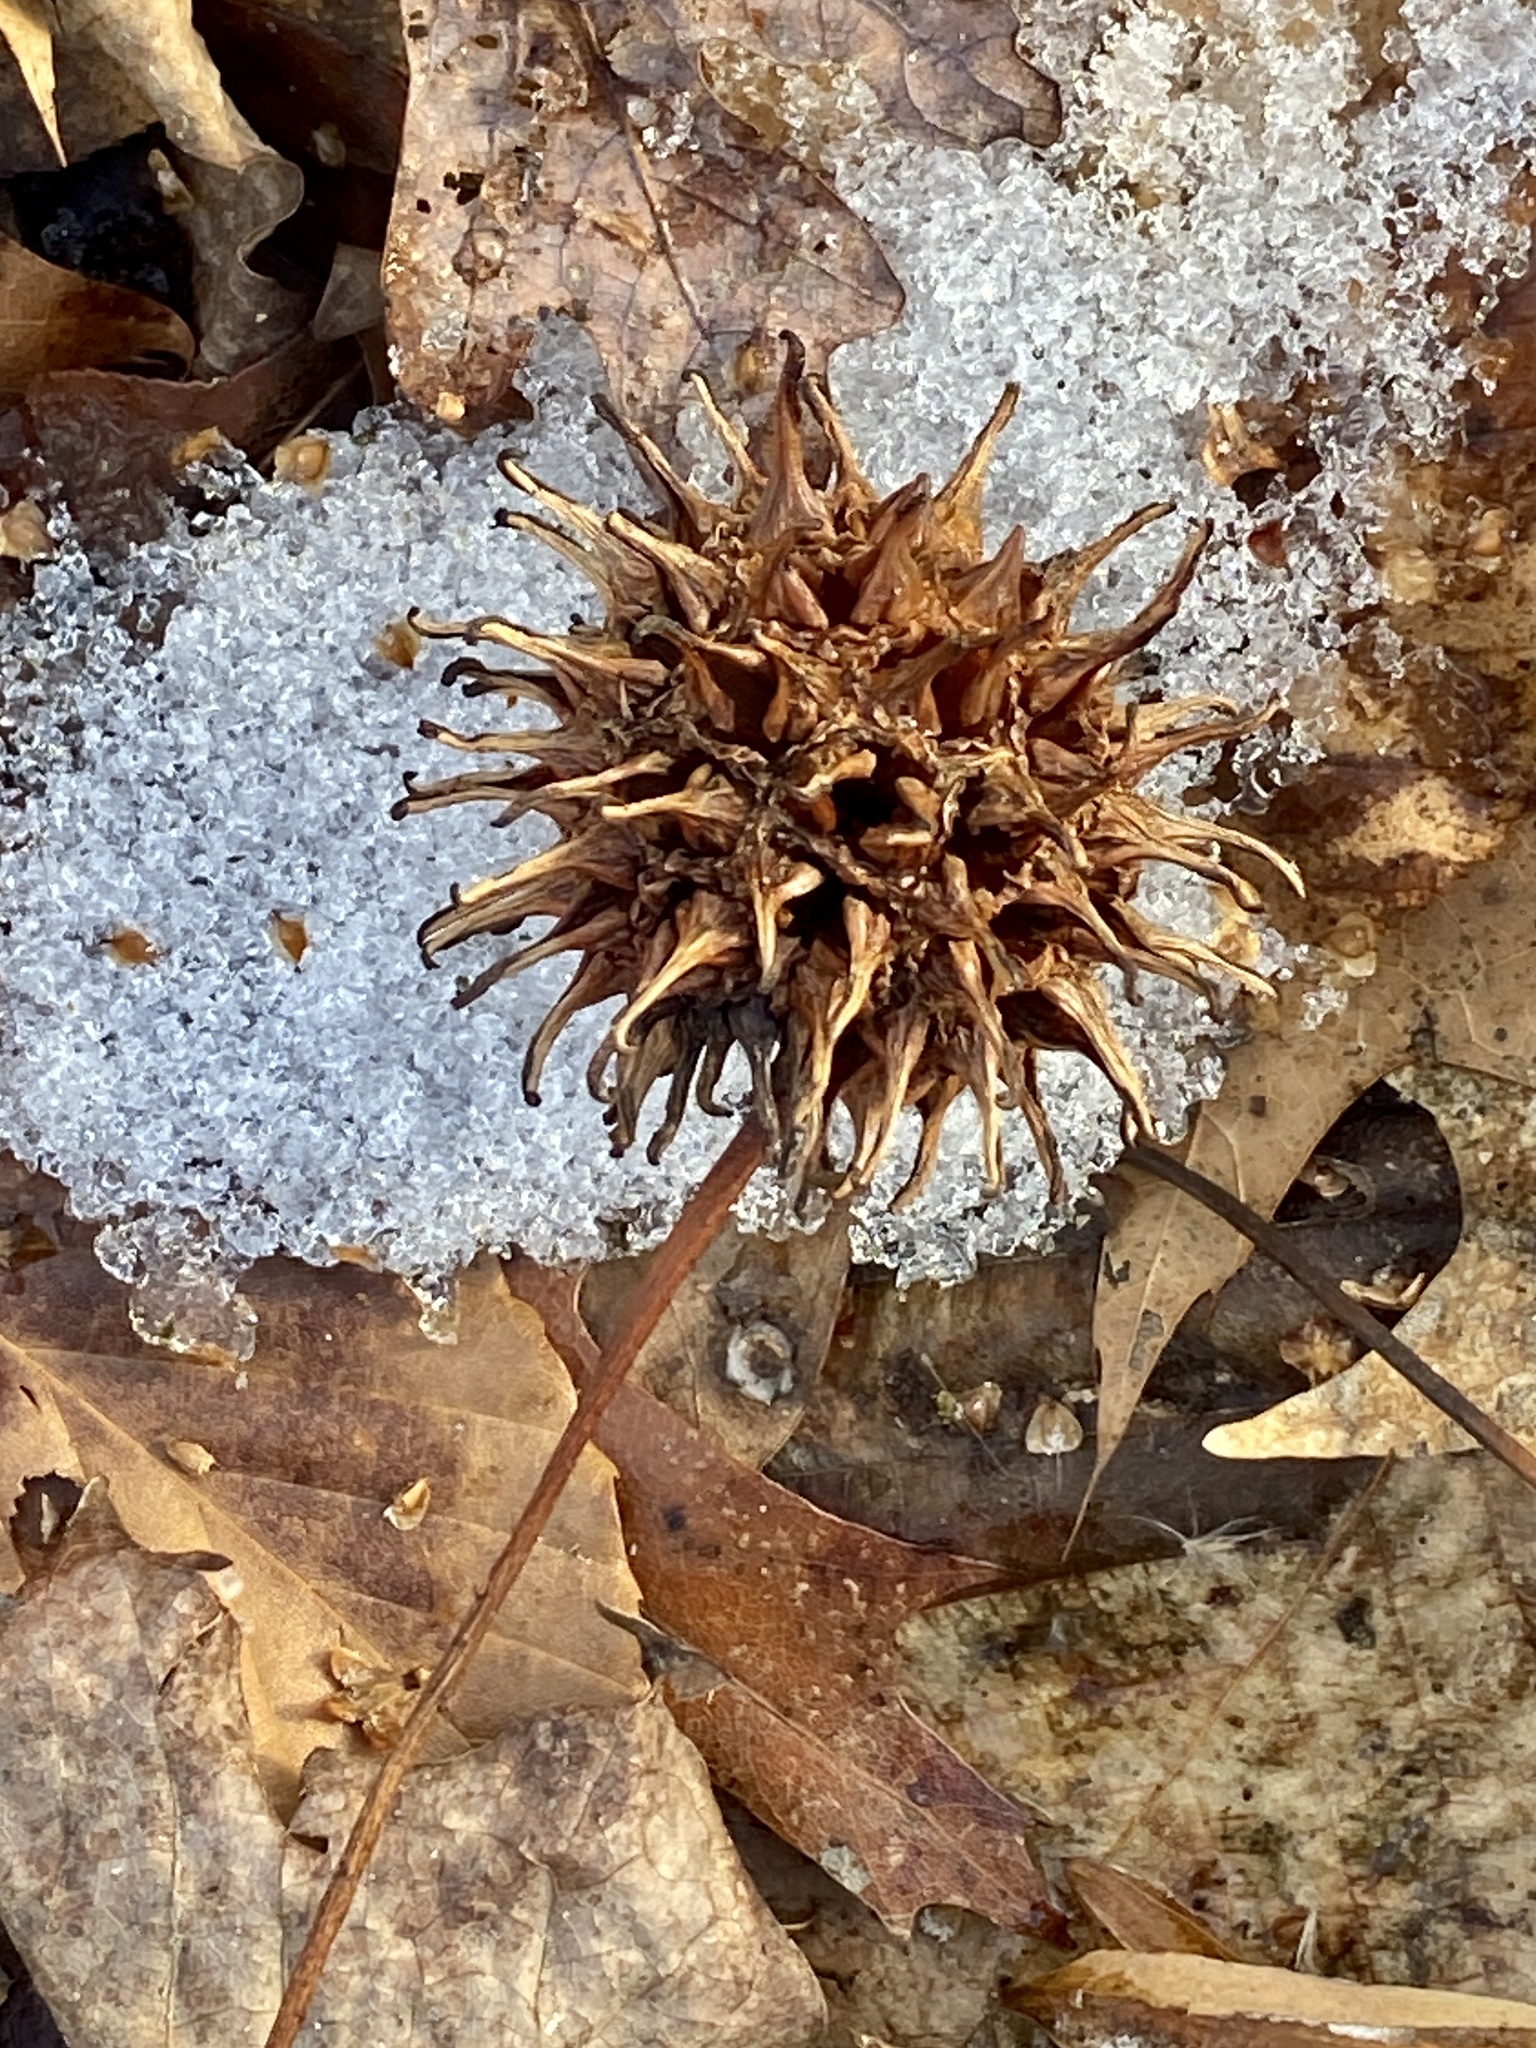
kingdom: Plantae
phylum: Tracheophyta
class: Magnoliopsida
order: Saxifragales
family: Altingiaceae
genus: Liquidambar
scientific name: Liquidambar styraciflua
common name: Sweet gum
